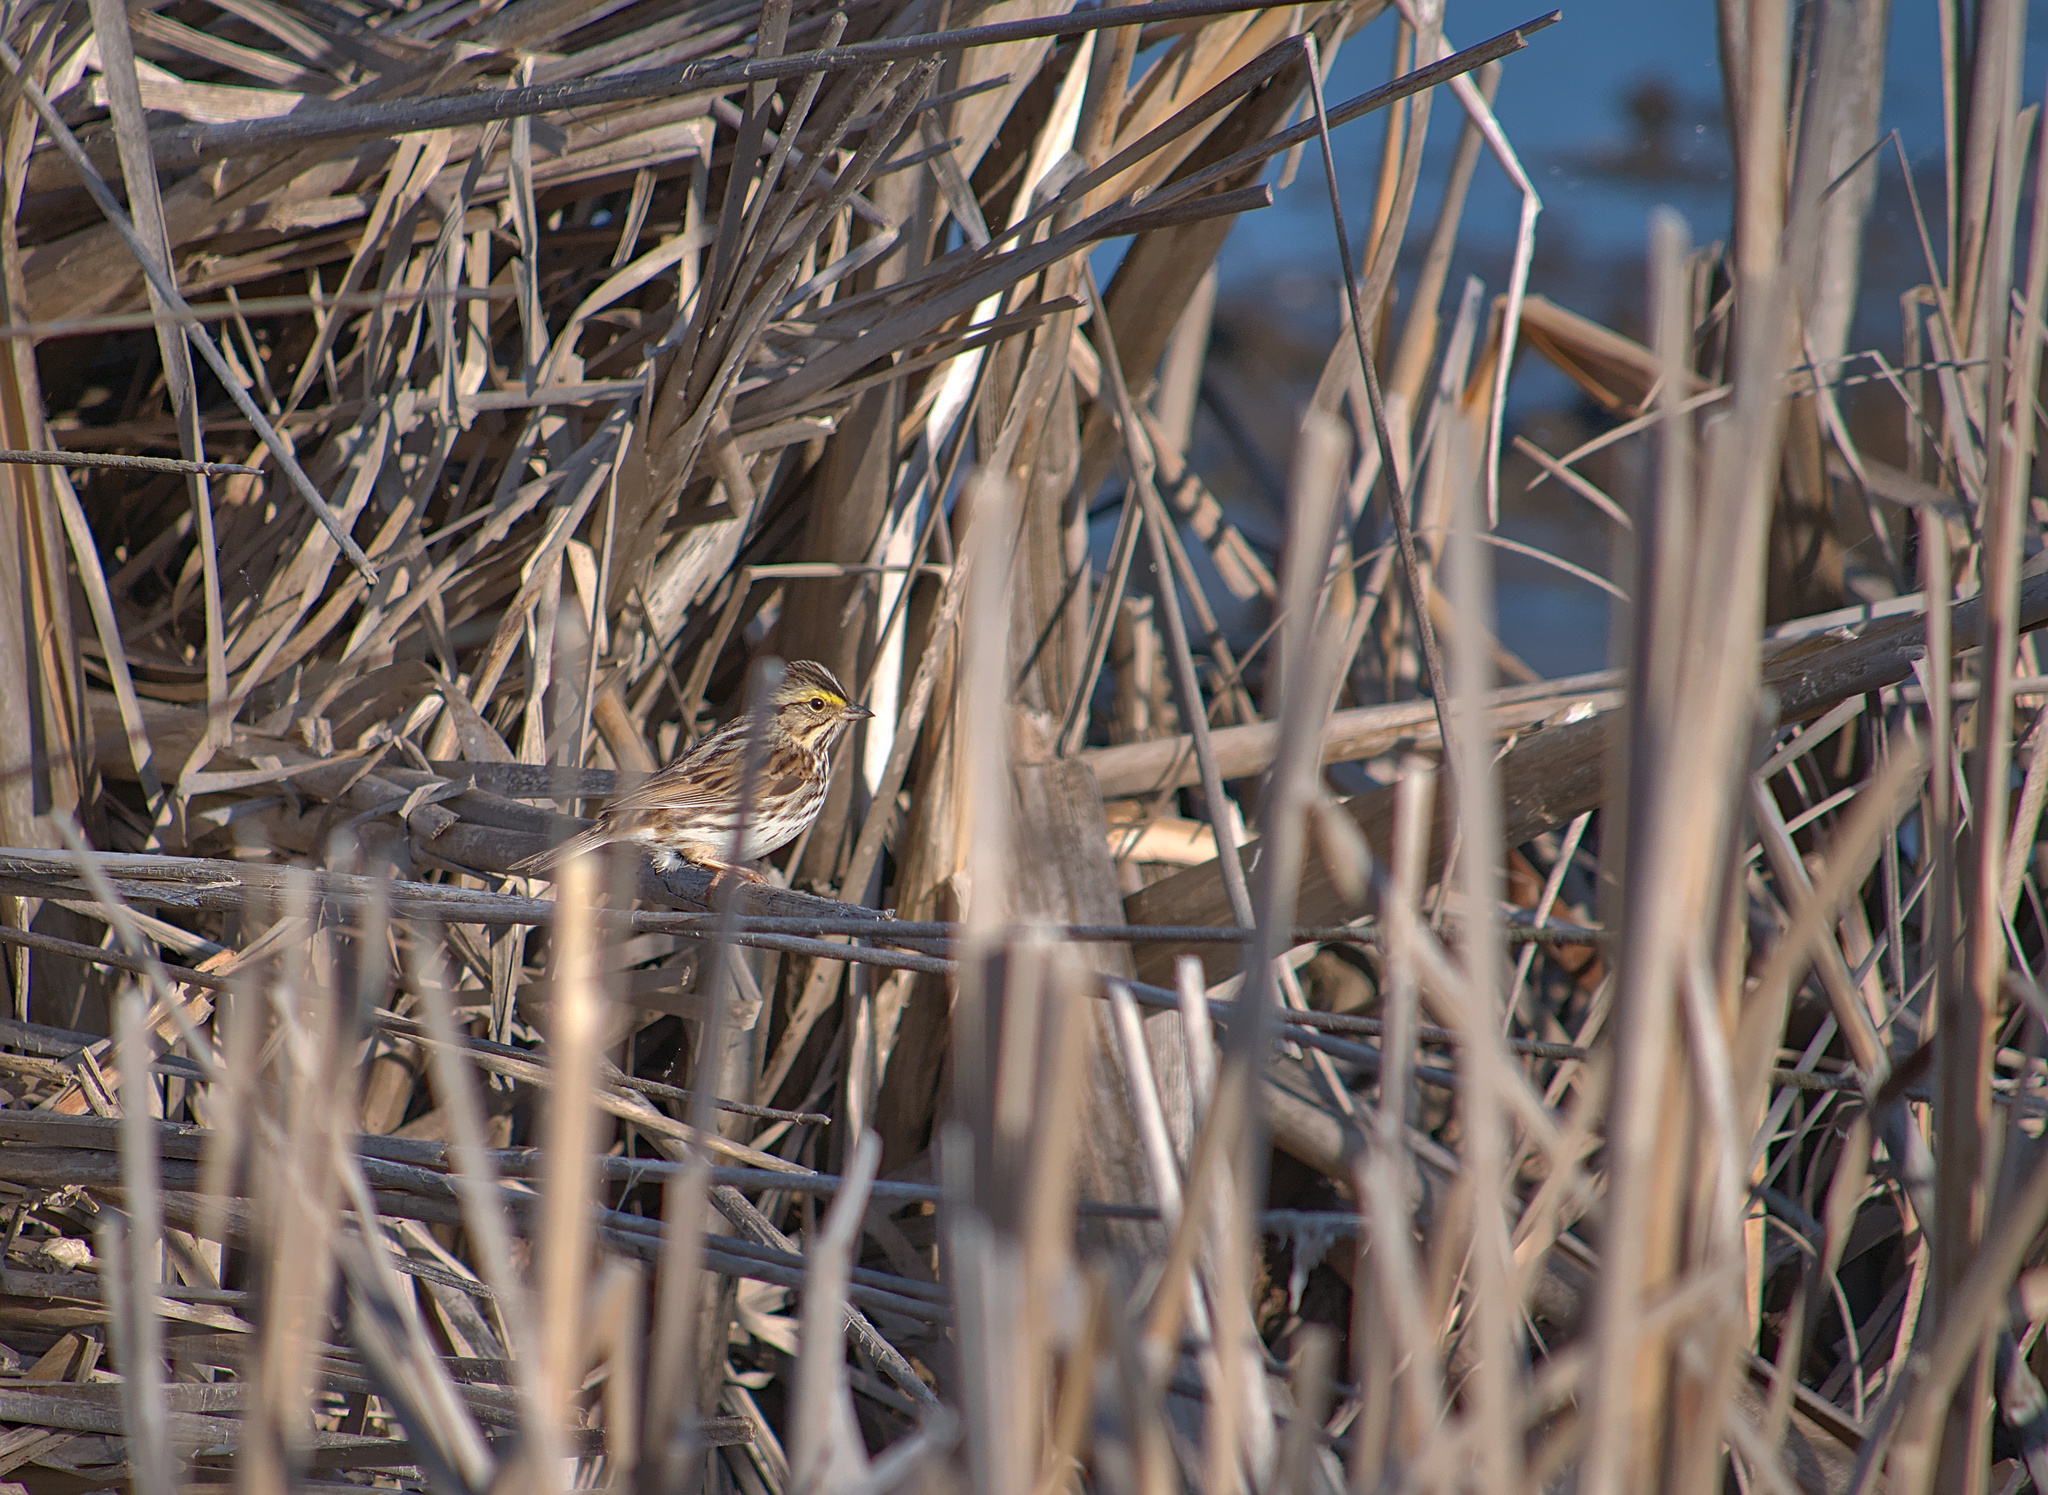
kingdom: Animalia
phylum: Chordata
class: Aves
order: Passeriformes
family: Passerellidae
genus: Passerculus
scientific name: Passerculus sandwichensis
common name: Savannah sparrow
